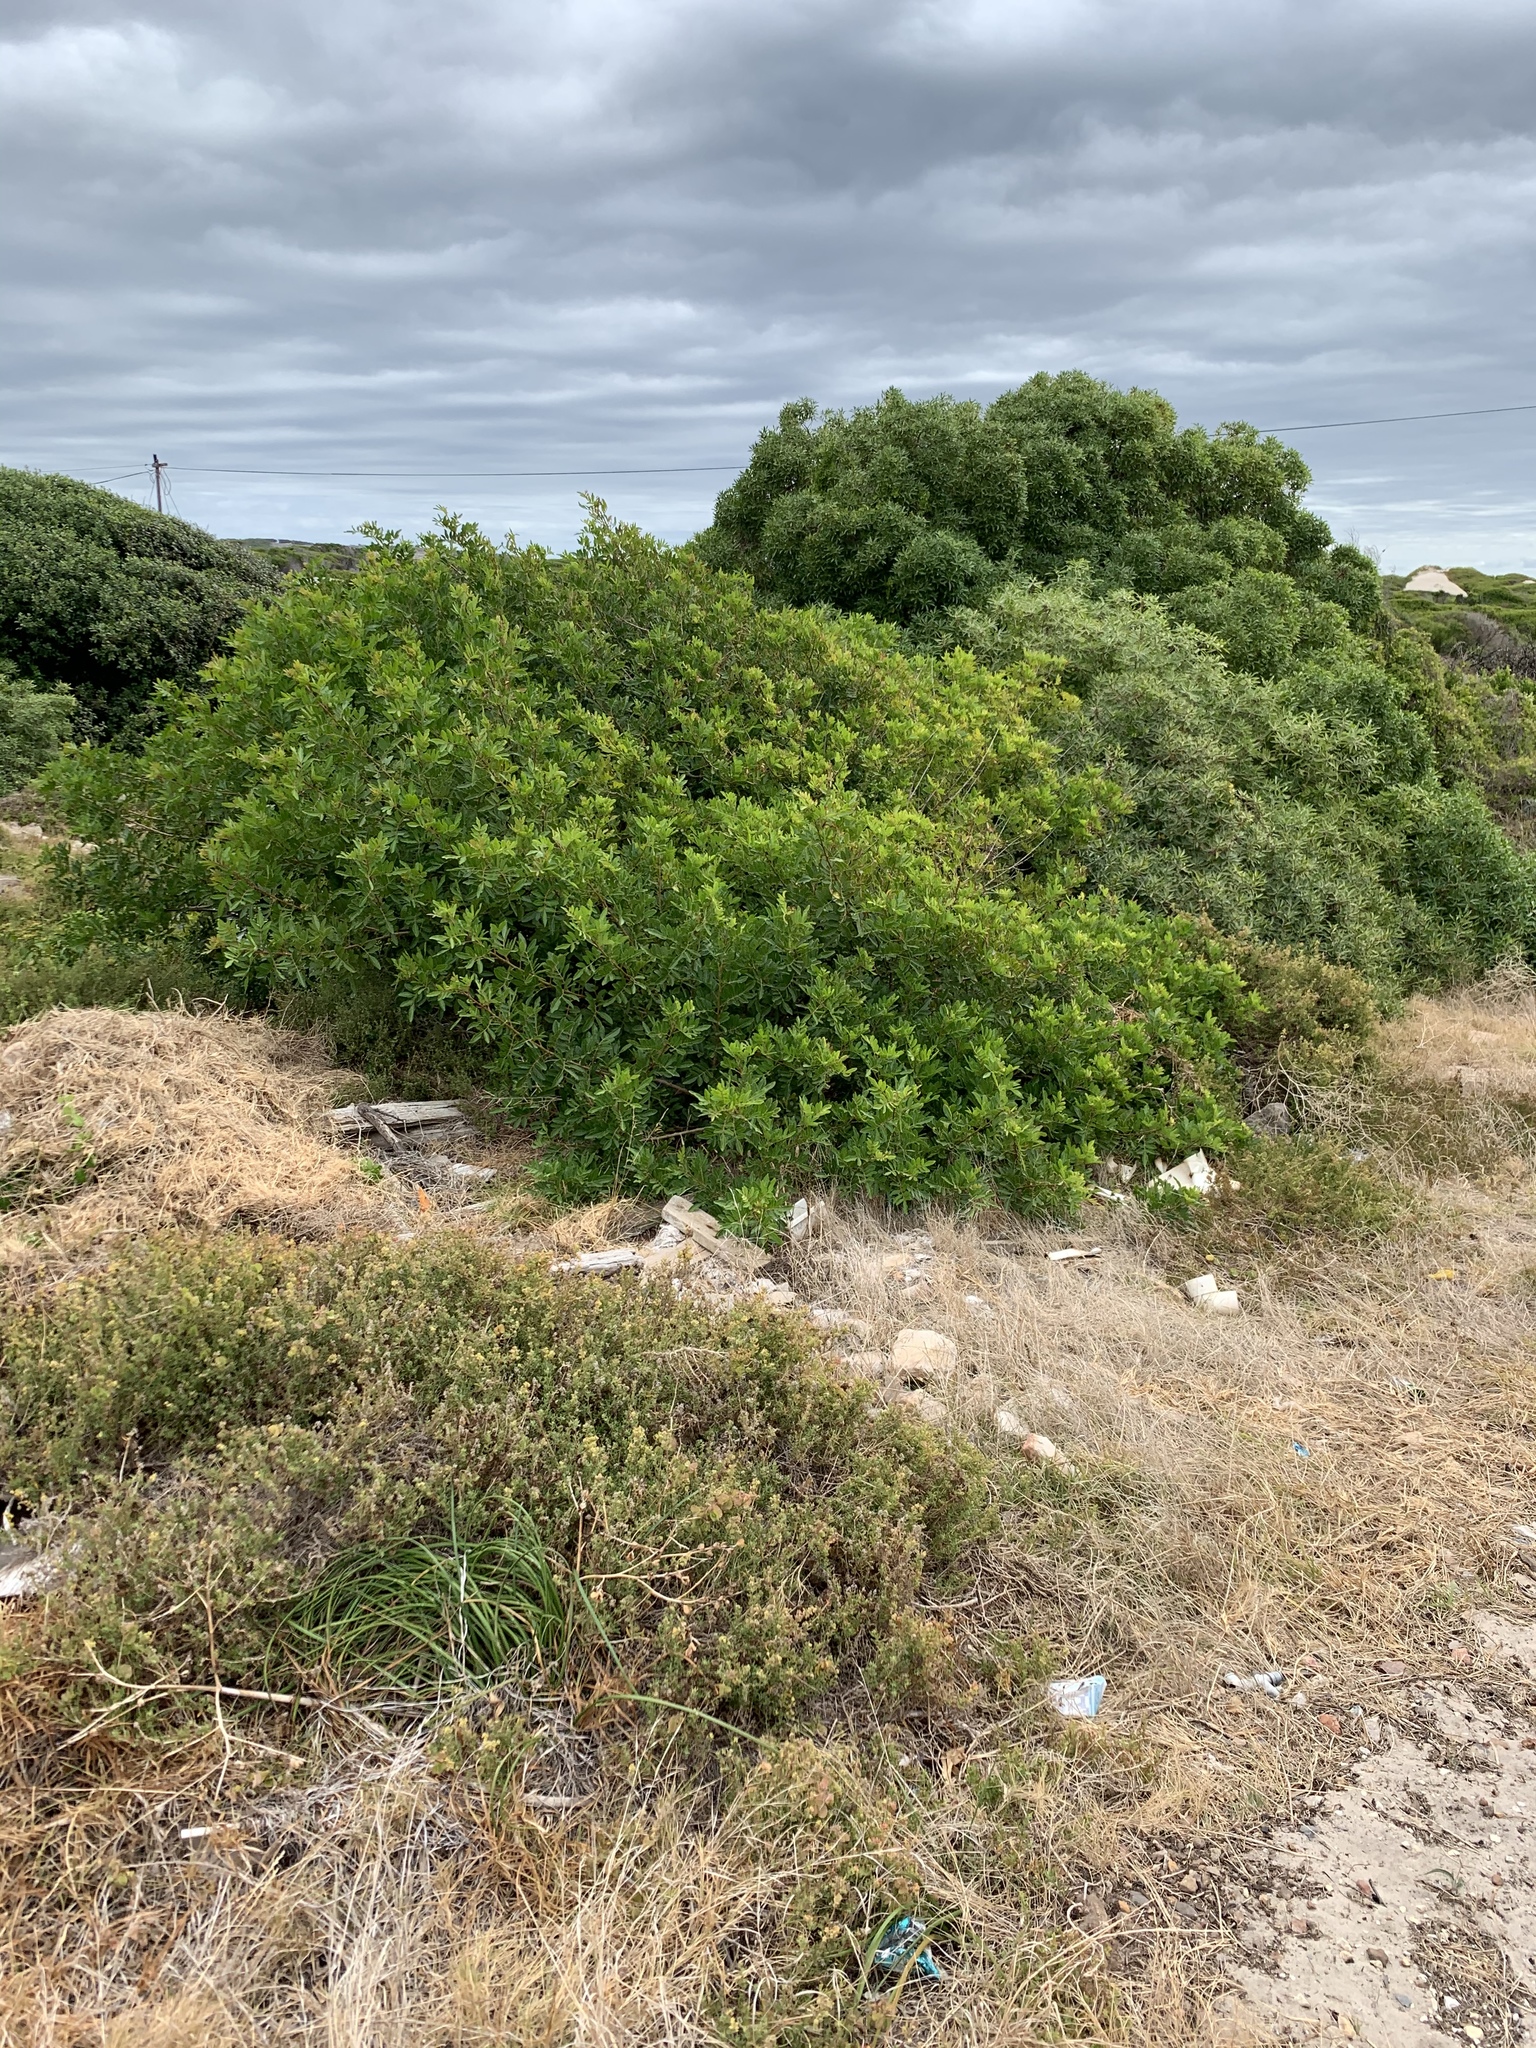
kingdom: Plantae
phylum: Tracheophyta
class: Magnoliopsida
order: Sapindales
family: Anacardiaceae
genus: Schinus
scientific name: Schinus terebinthifolia
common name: Brazilian peppertree
